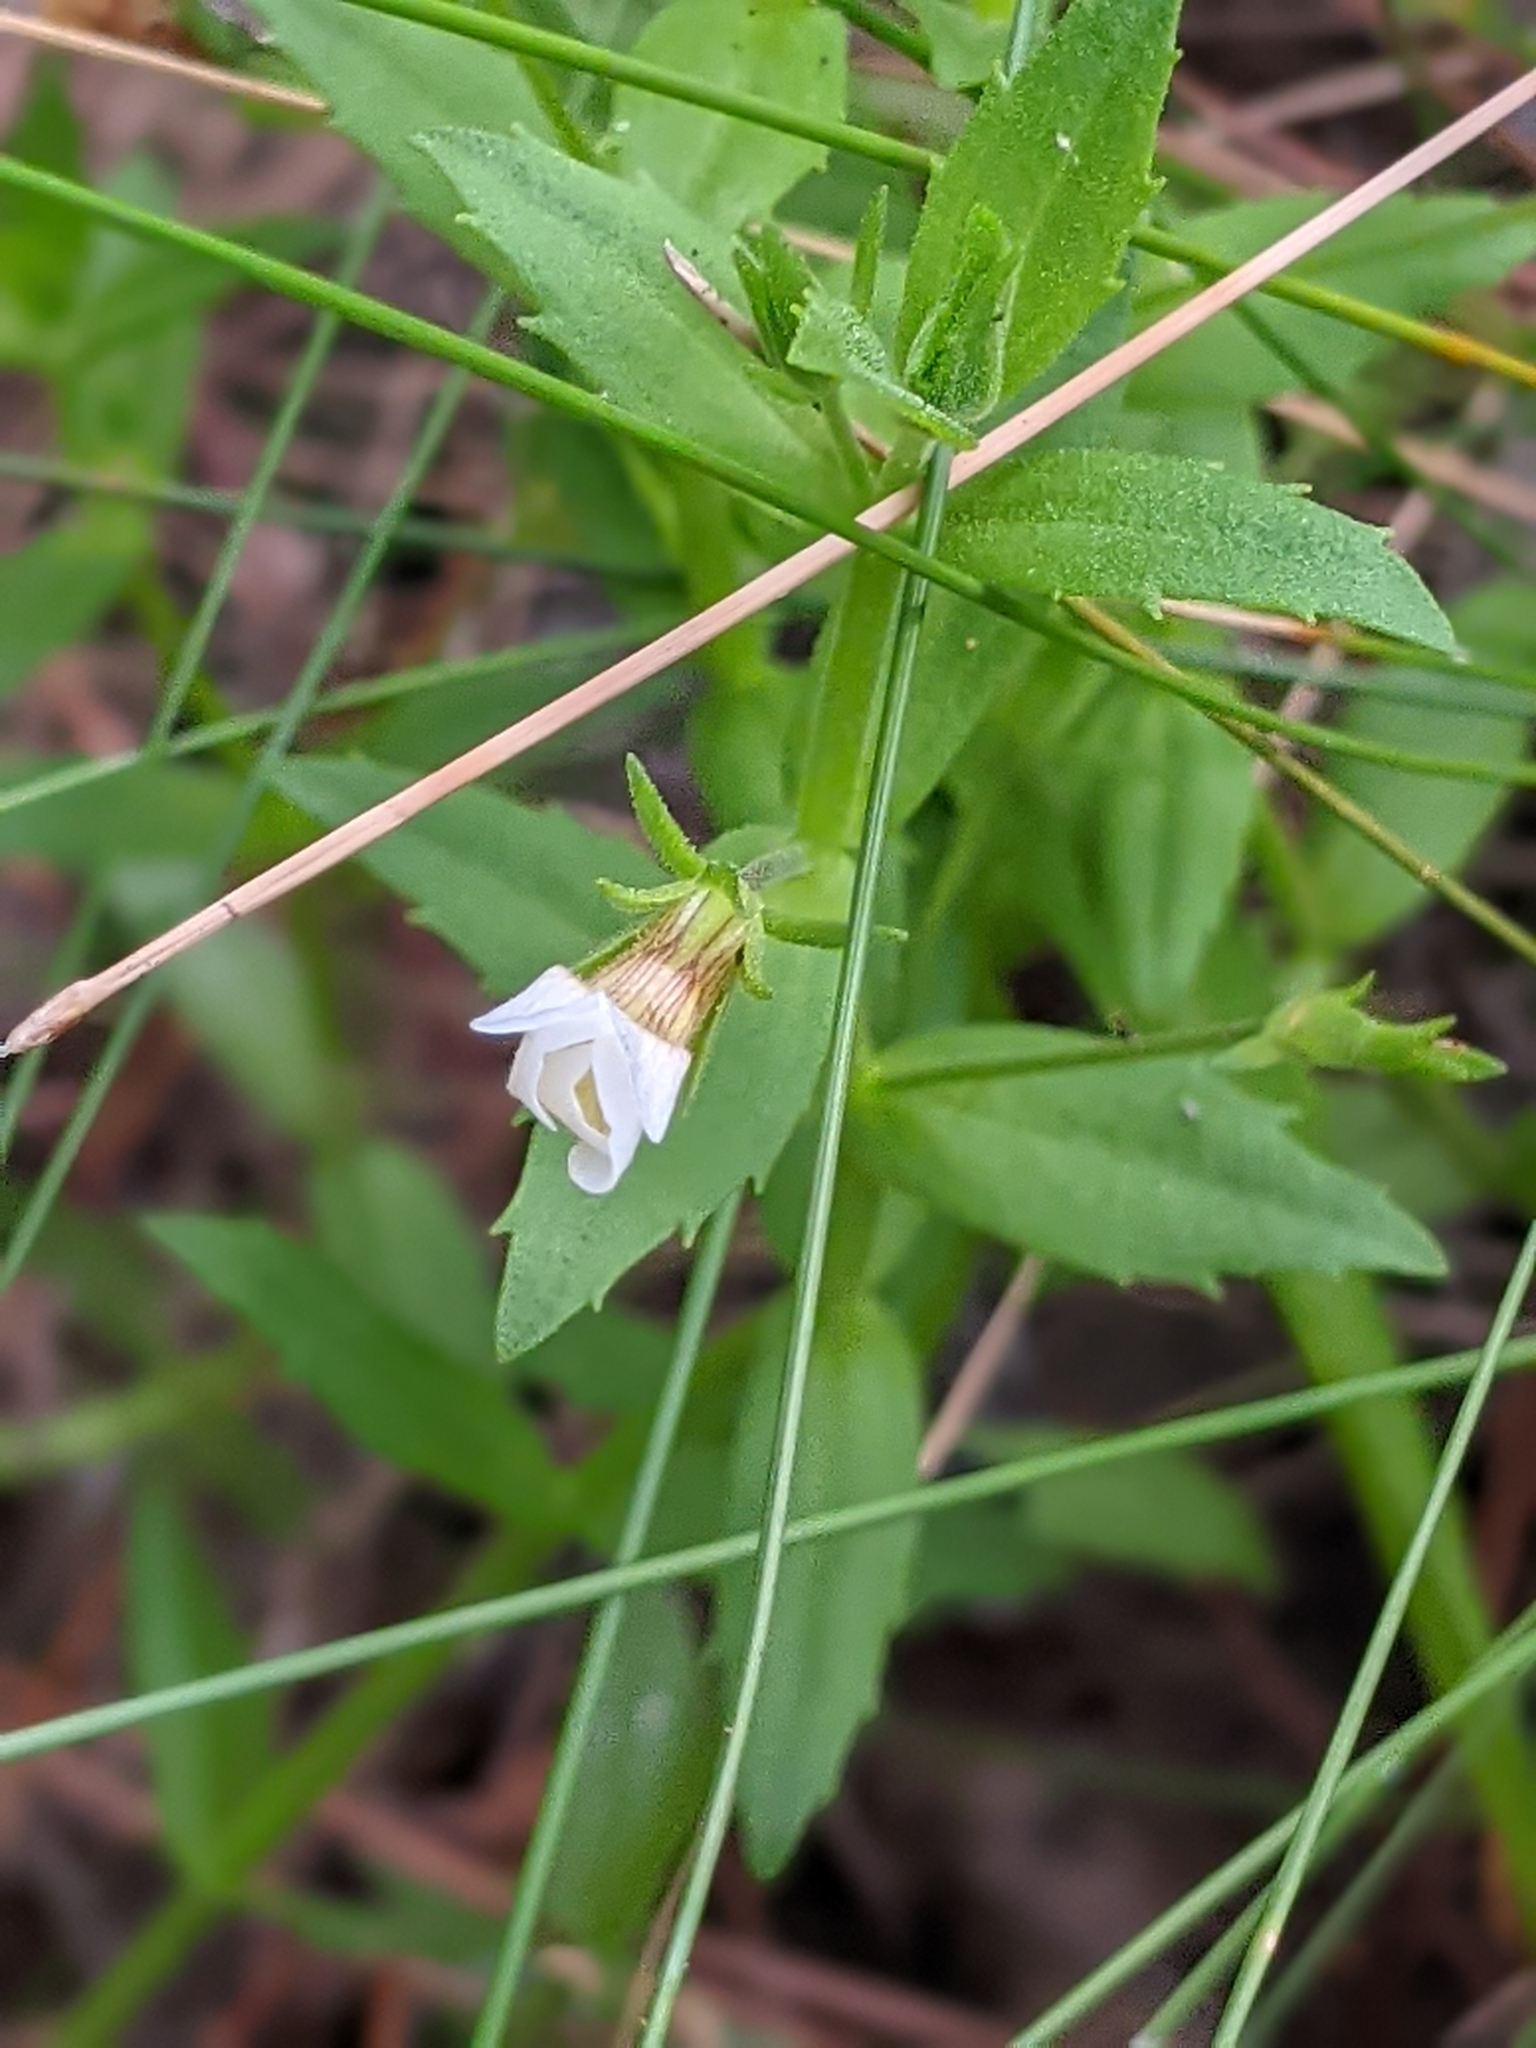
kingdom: Plantae
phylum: Tracheophyta
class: Magnoliopsida
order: Lamiales
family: Plantaginaceae
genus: Gratiola
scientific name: Gratiola neglecta
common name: American hedge-hyssop
